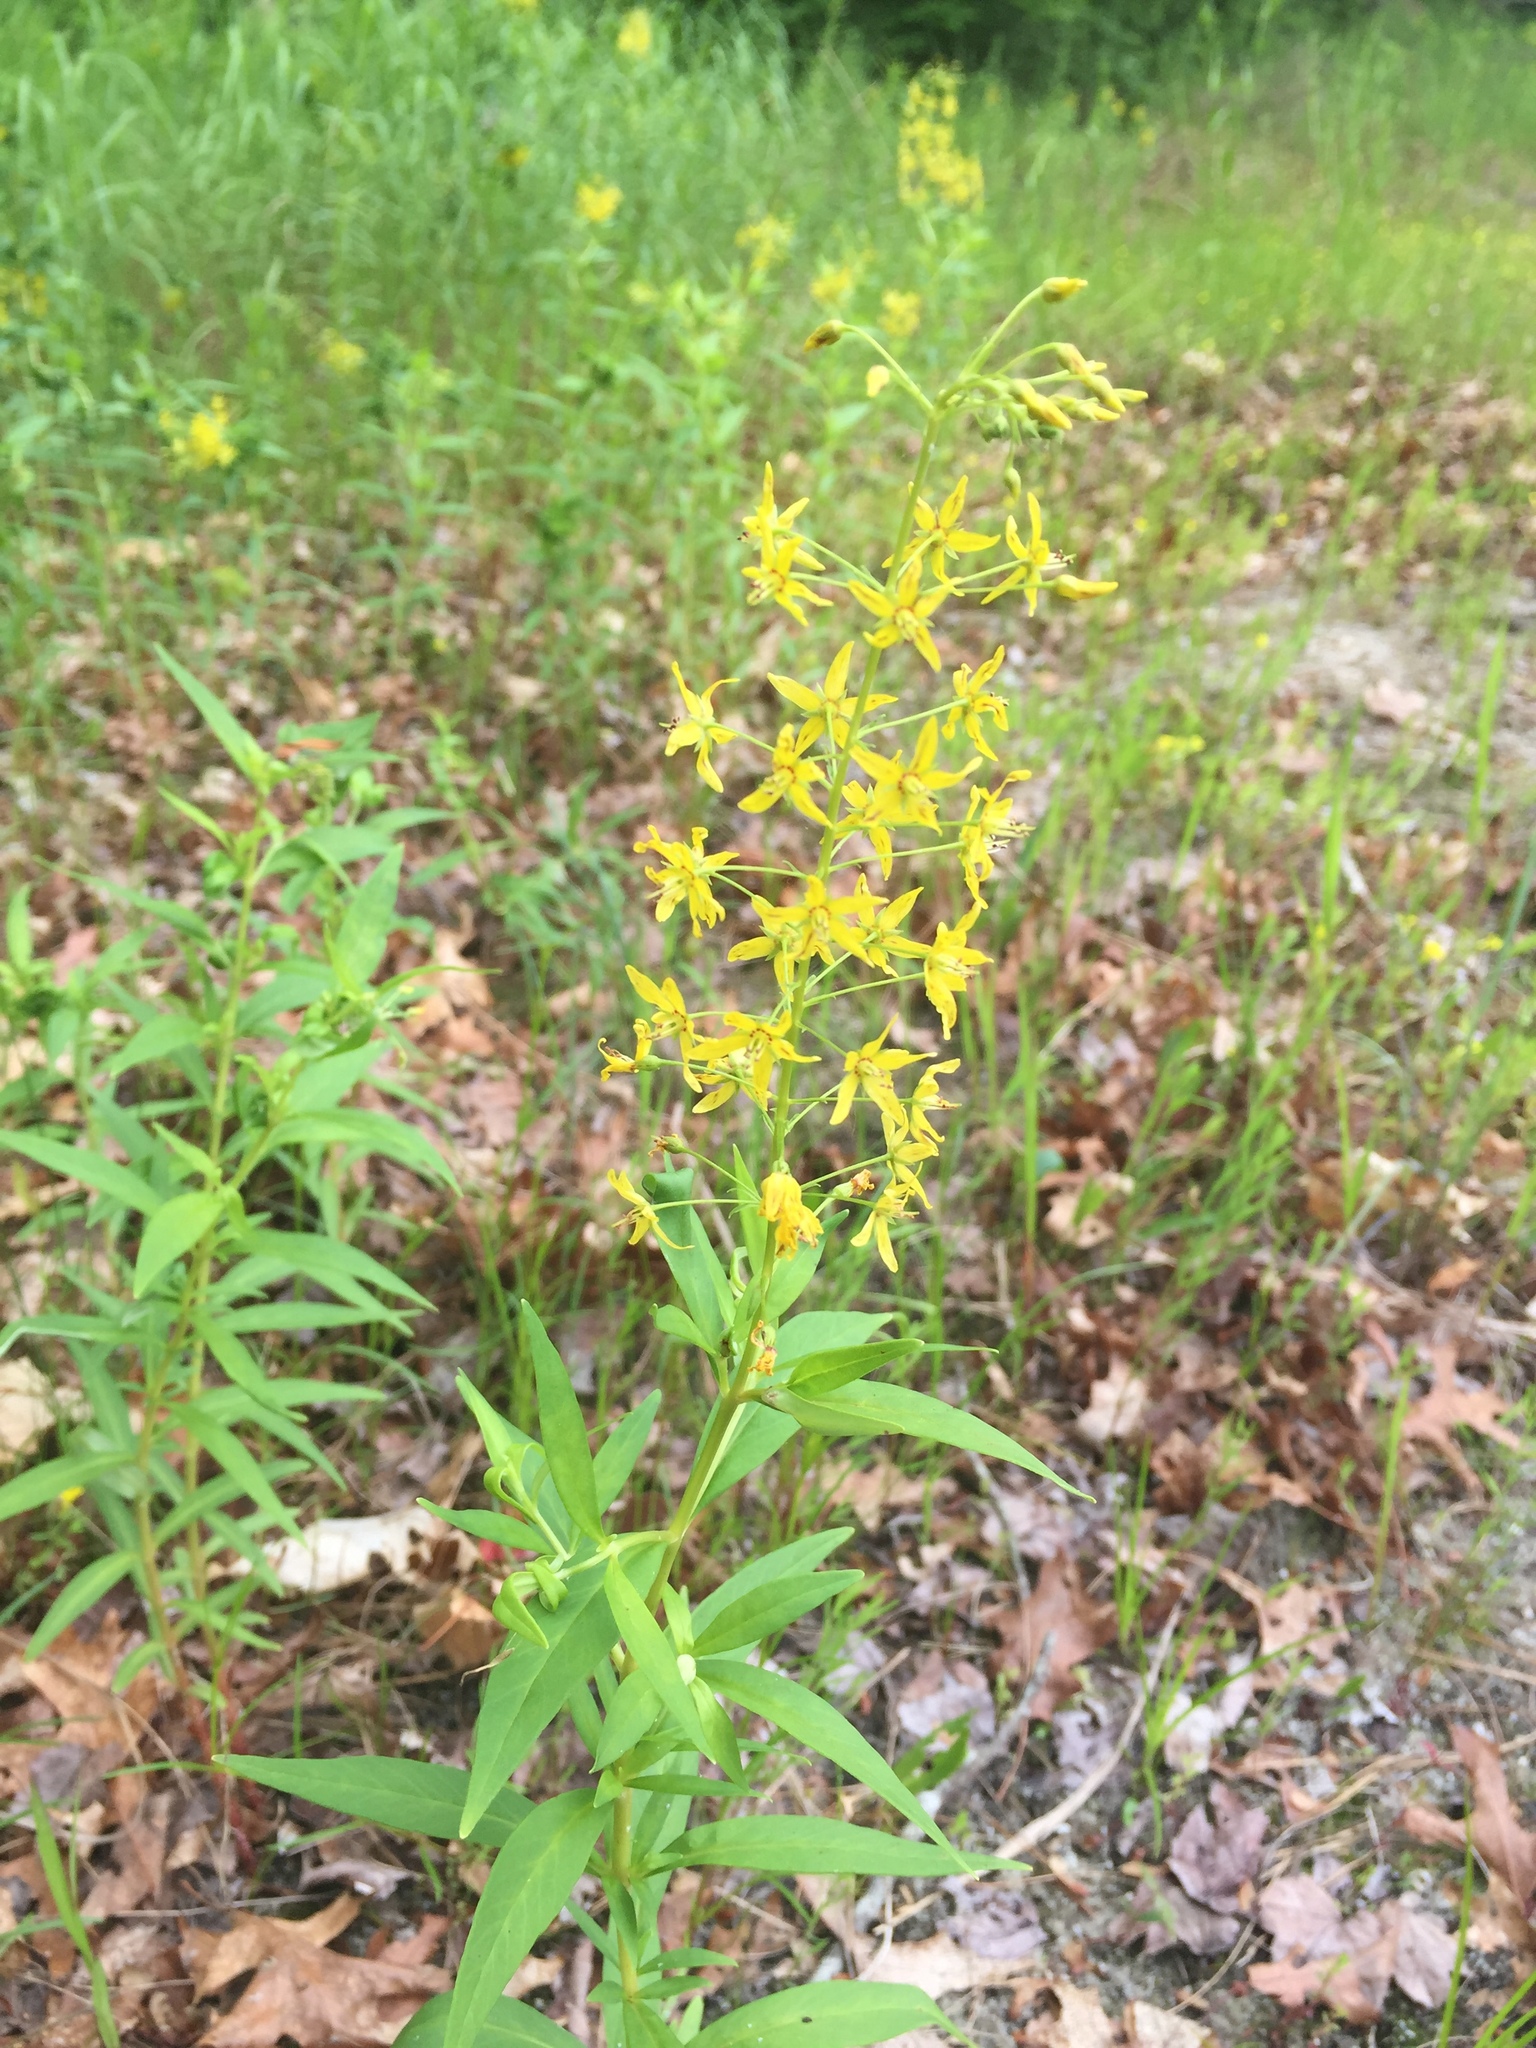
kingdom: Plantae
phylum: Tracheophyta
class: Magnoliopsida
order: Ericales
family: Primulaceae
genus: Lysimachia
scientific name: Lysimachia terrestris
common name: Lake loosestrife
